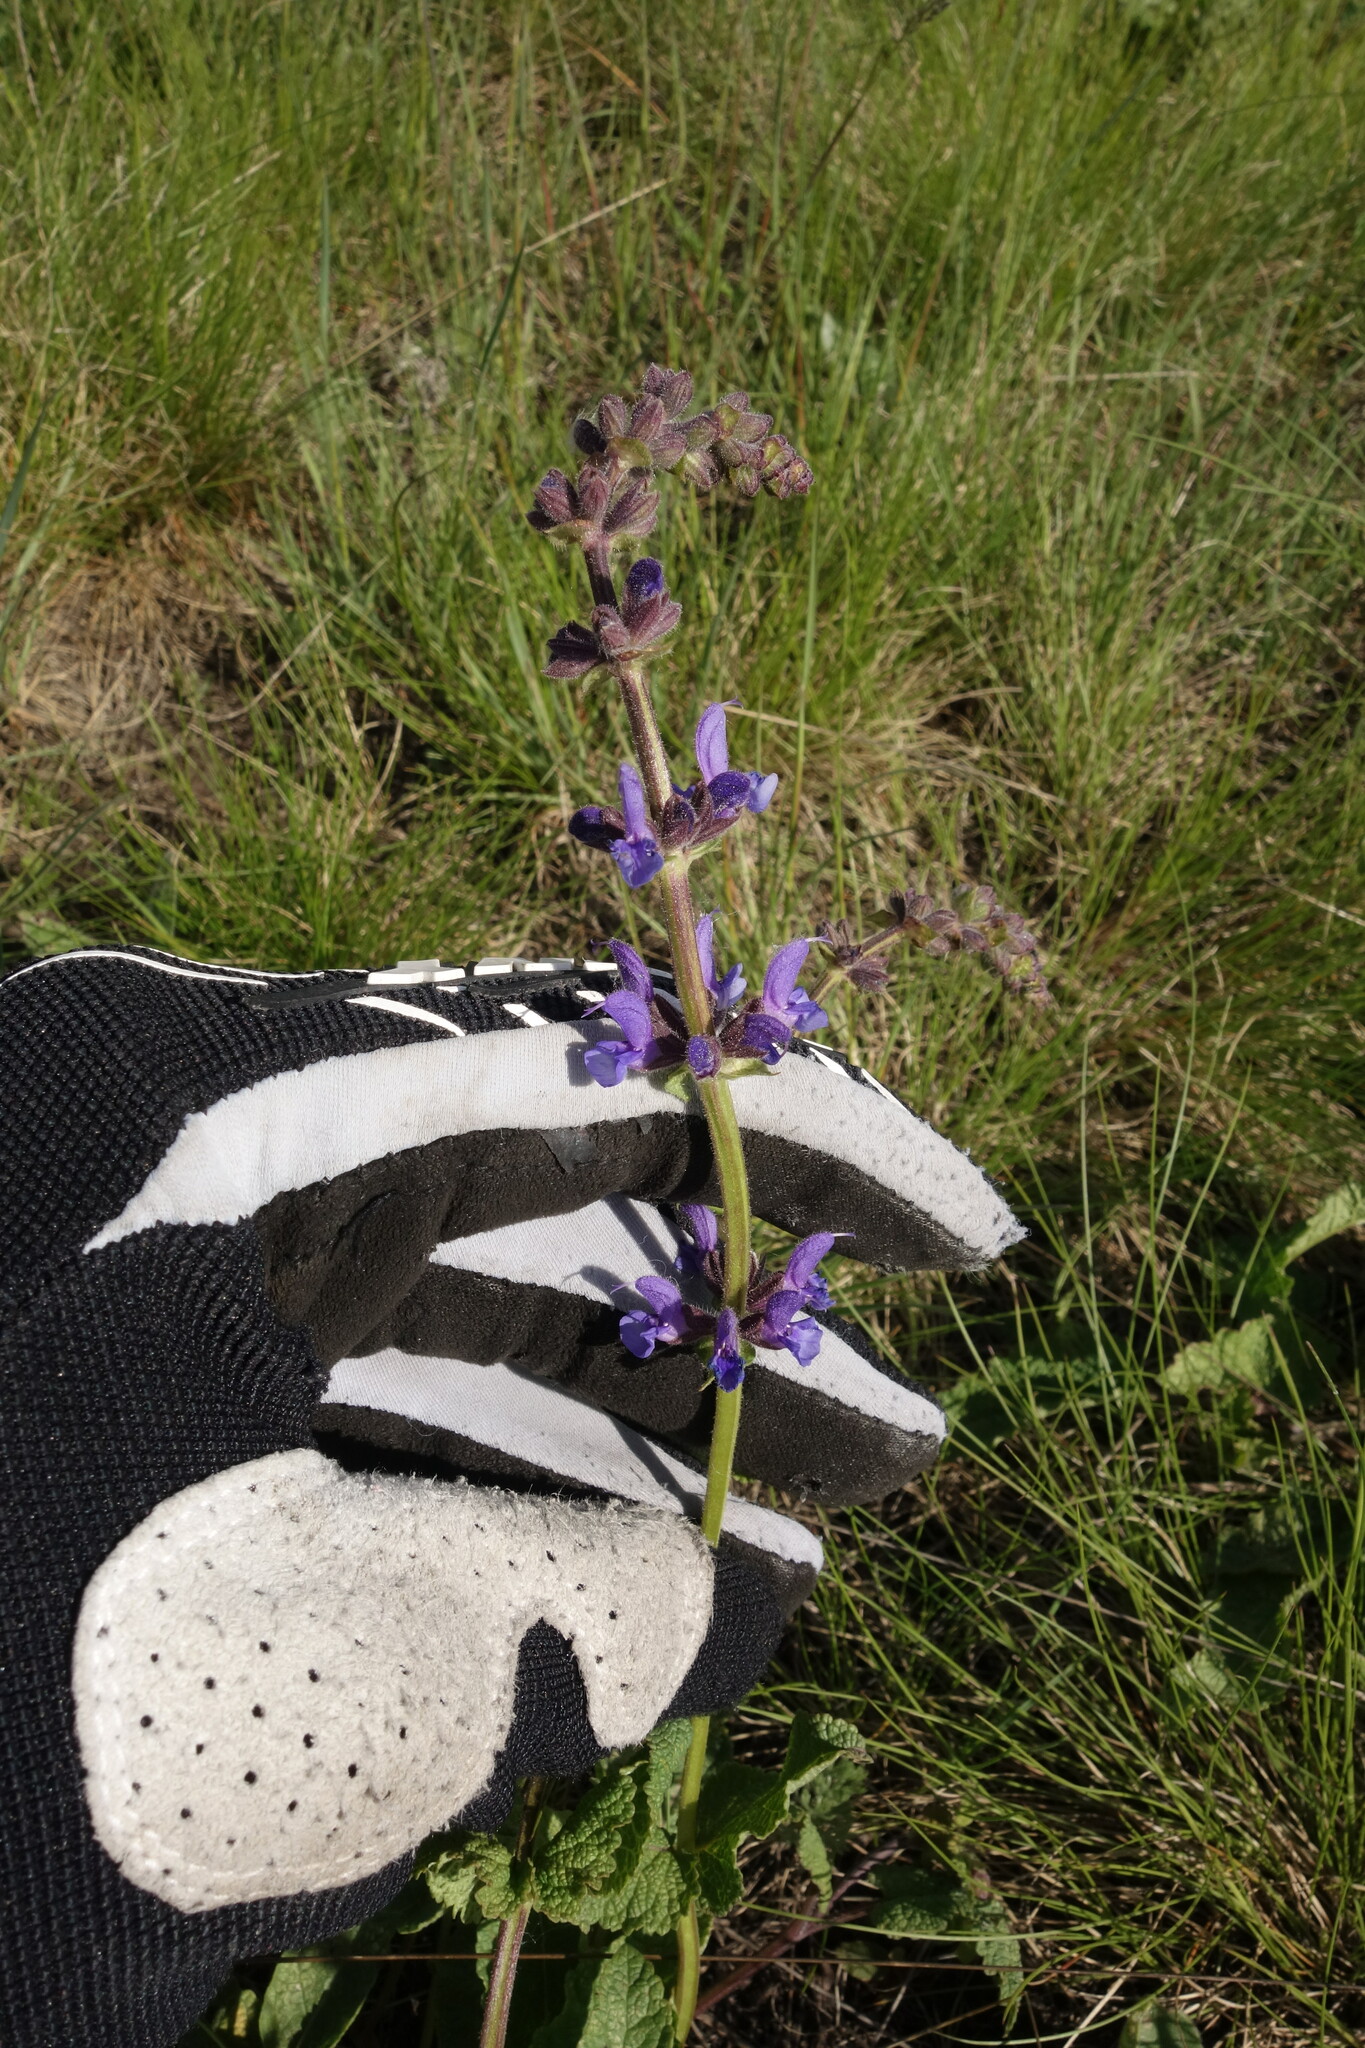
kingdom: Plantae
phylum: Tracheophyta
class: Magnoliopsida
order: Lamiales
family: Lamiaceae
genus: Salvia
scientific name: Salvia dumetorum
